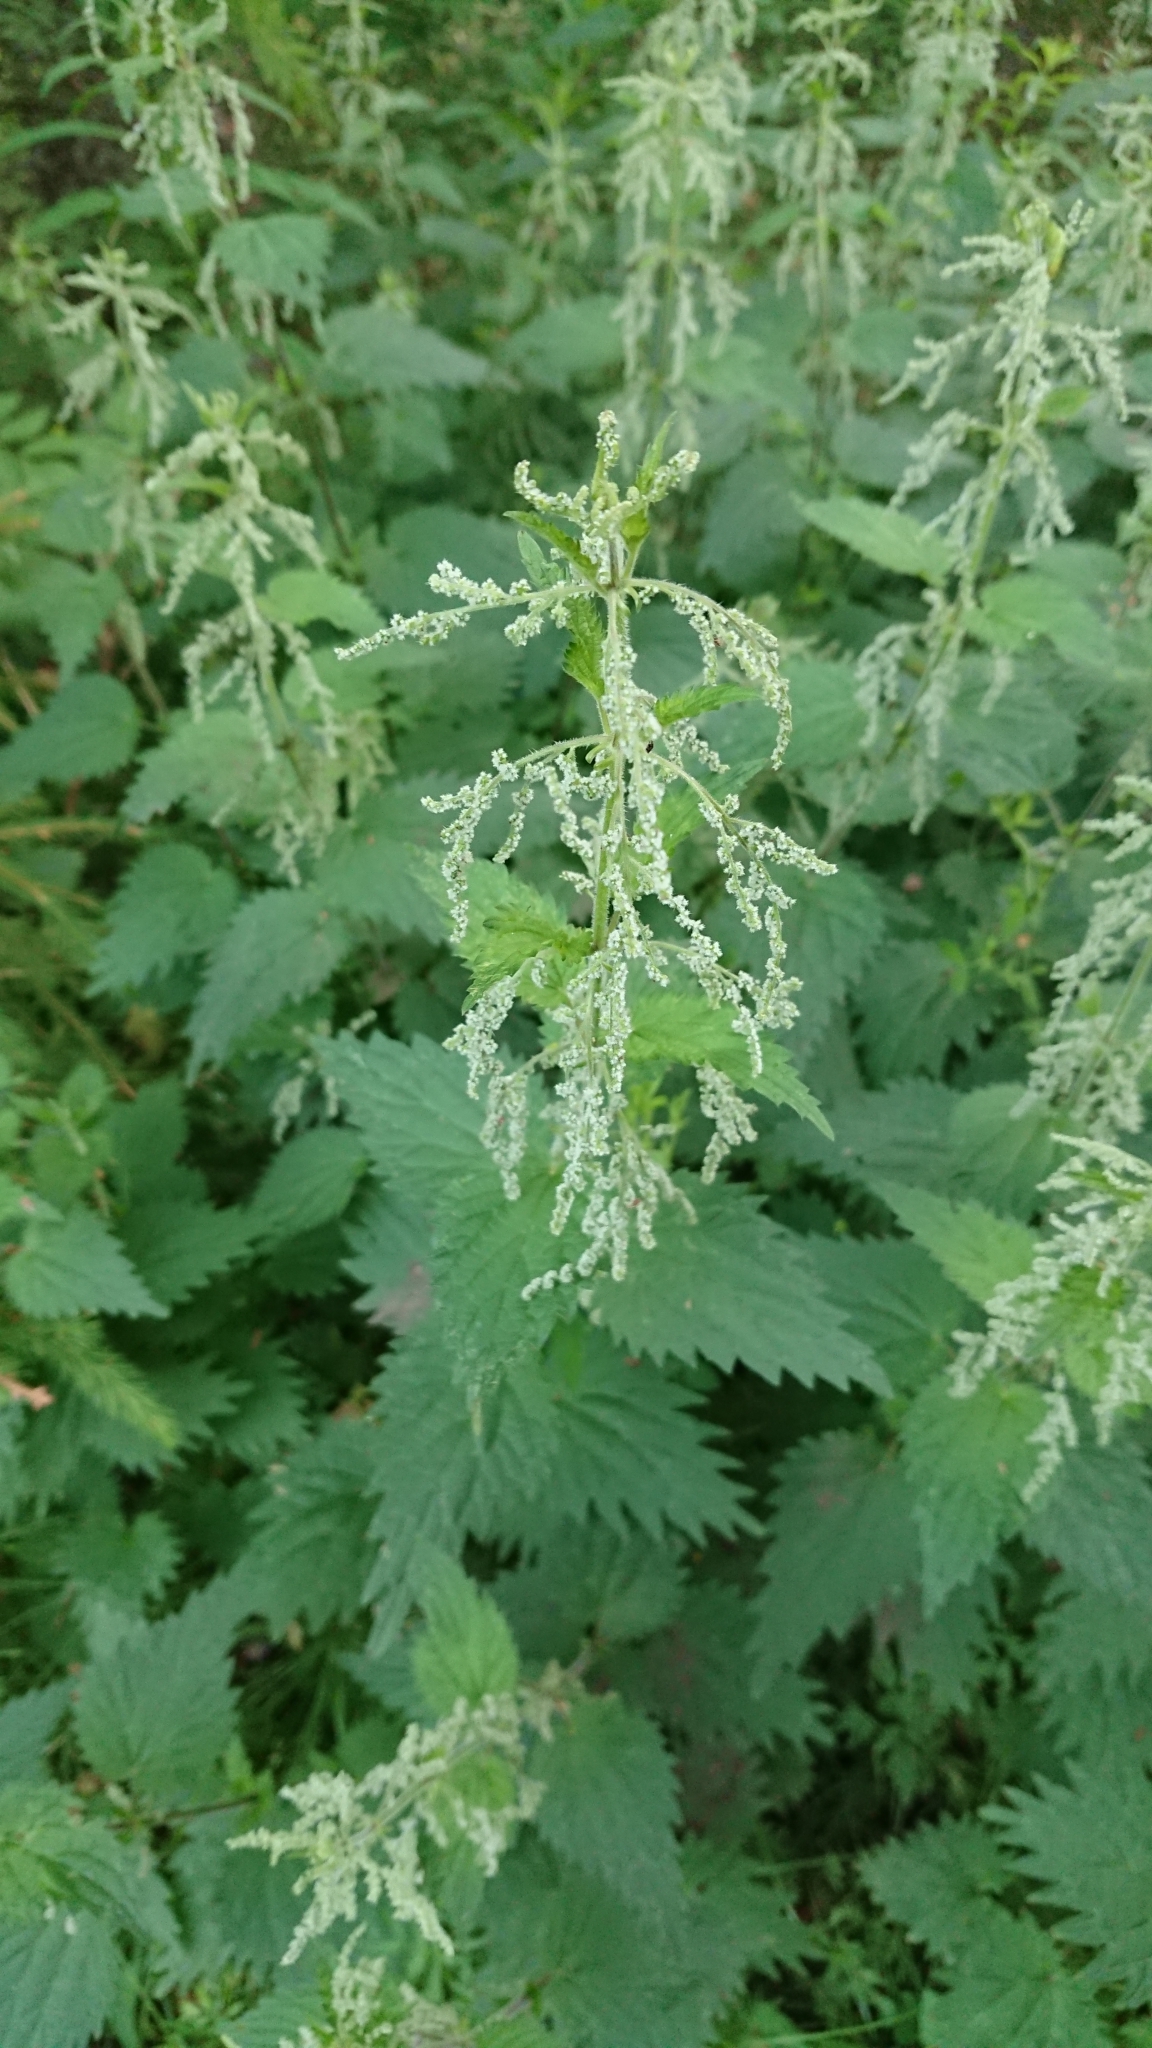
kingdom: Plantae
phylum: Tracheophyta
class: Magnoliopsida
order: Rosales
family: Urticaceae
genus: Urtica
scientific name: Urtica dioica
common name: Common nettle
